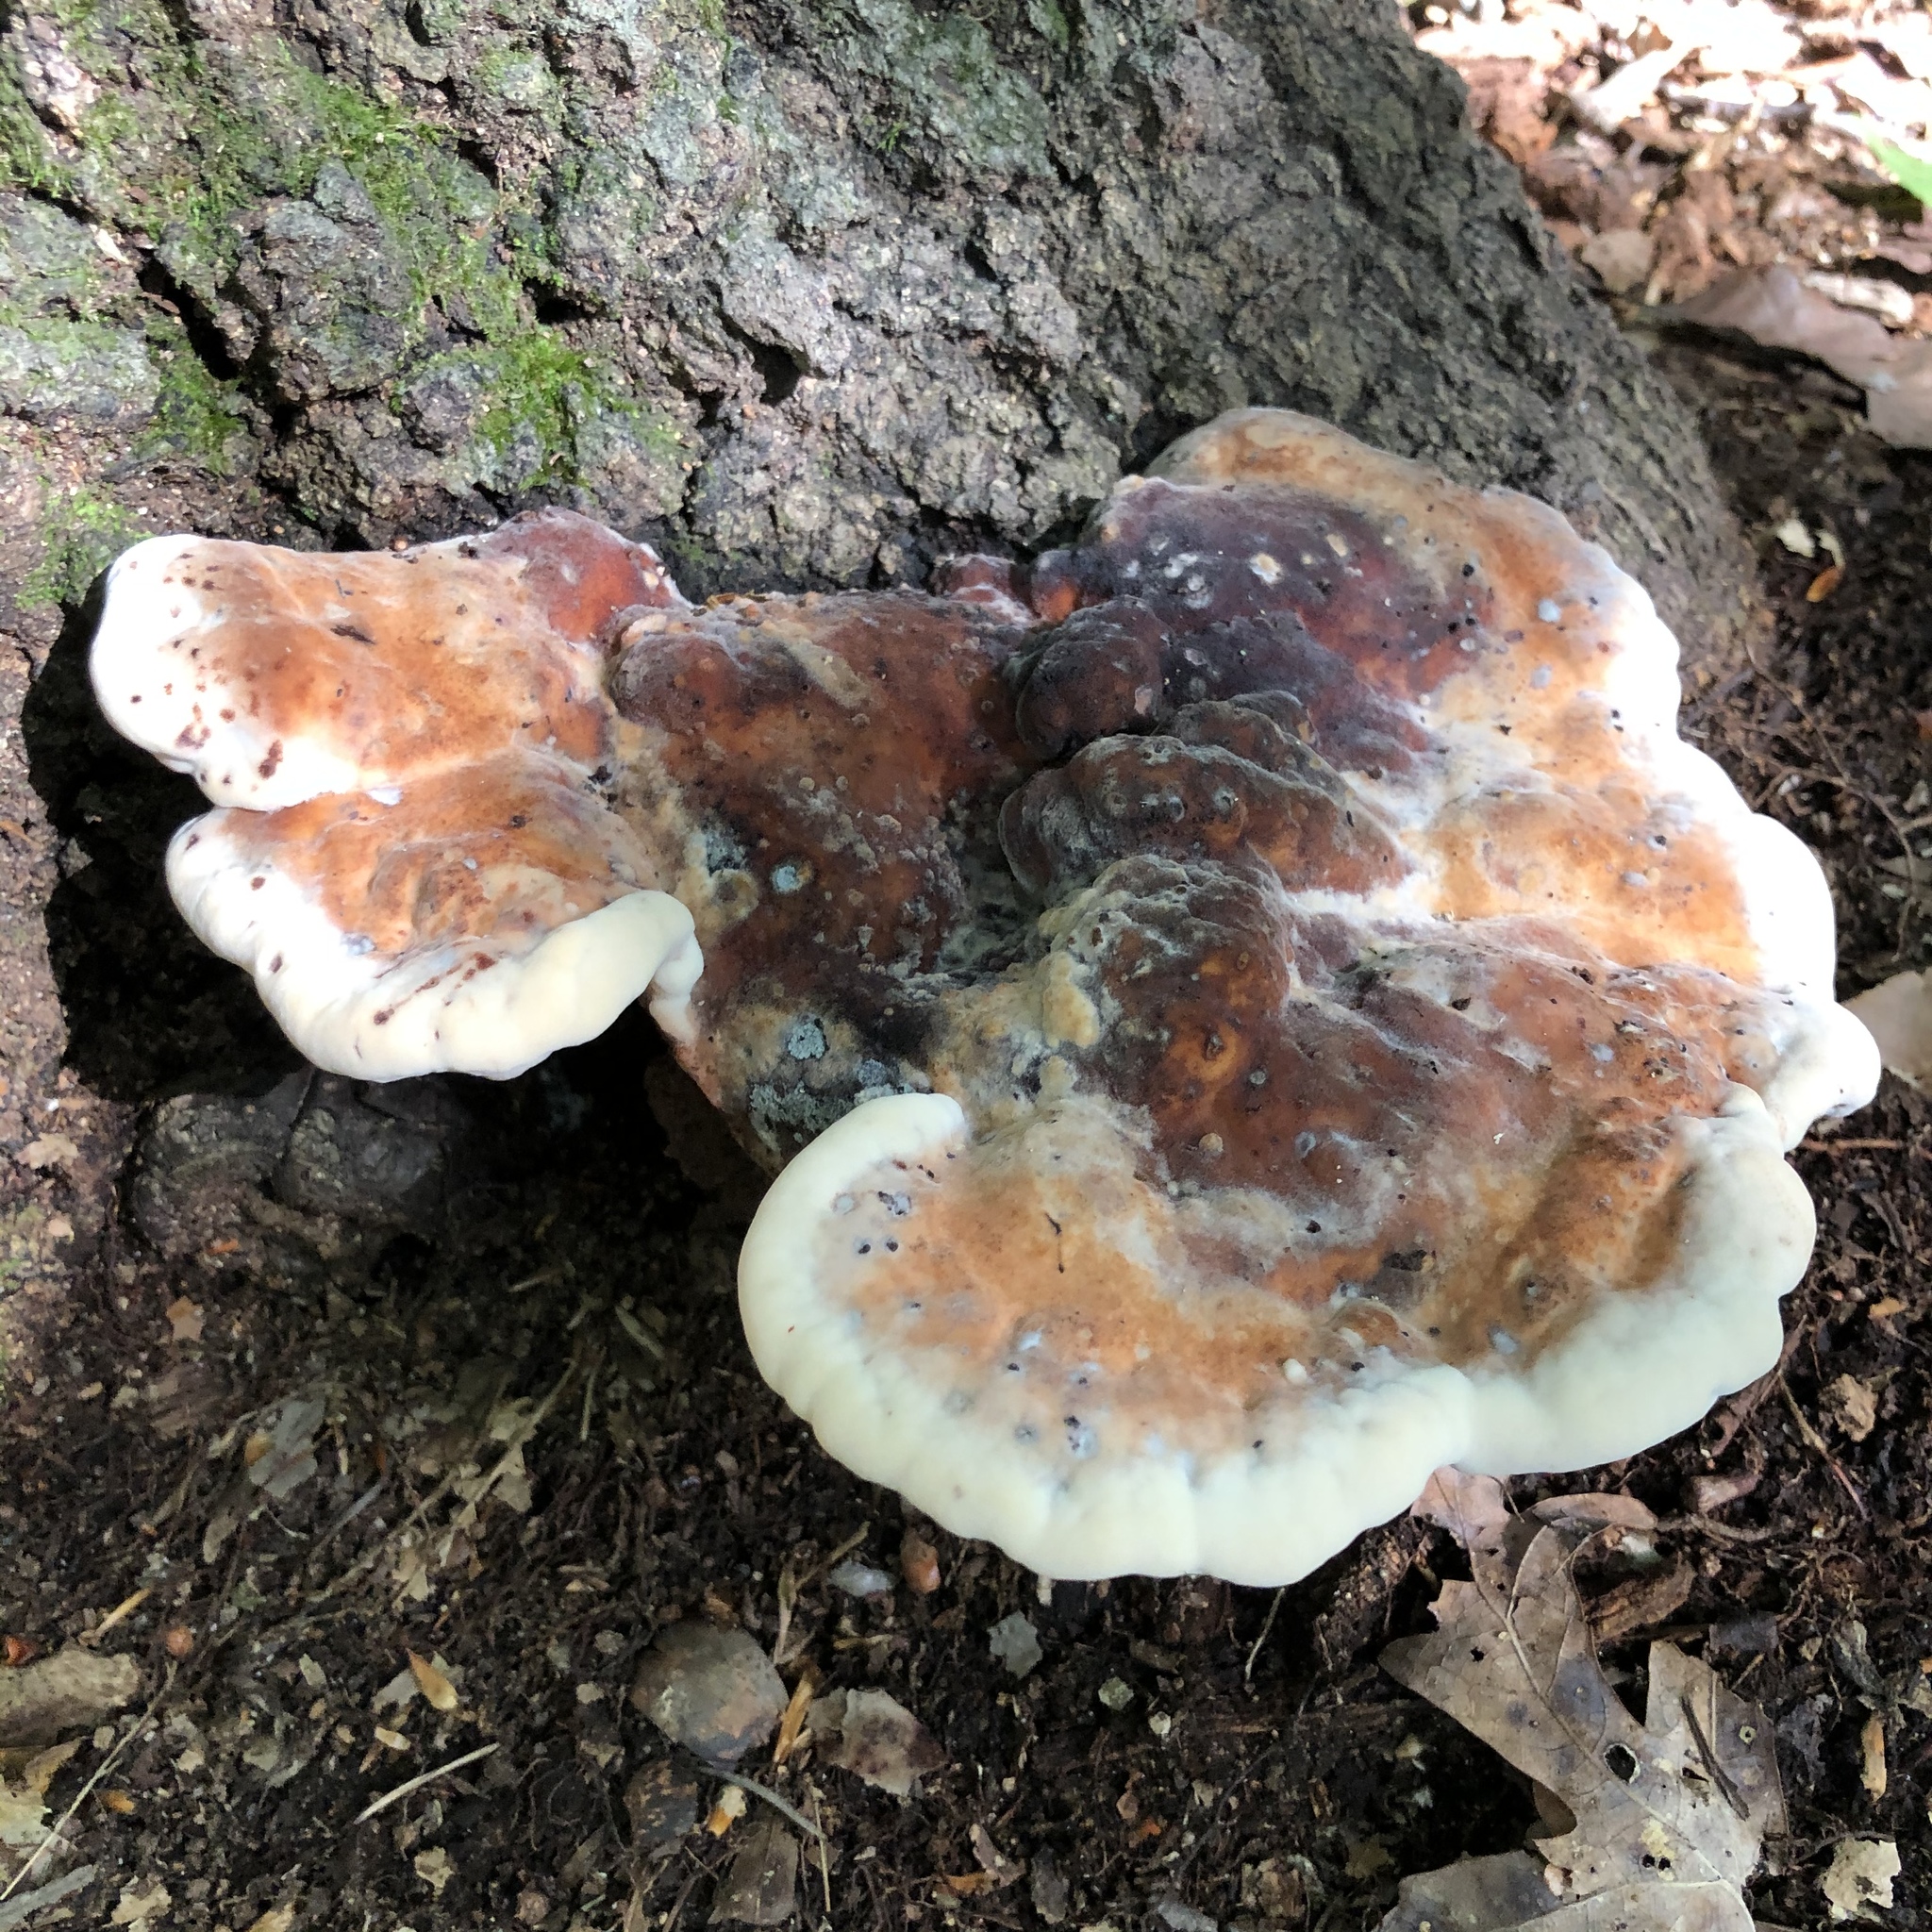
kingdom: Fungi
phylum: Basidiomycota
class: Agaricomycetes
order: Polyporales
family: Laetiporaceae
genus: Berkcurtia
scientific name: Berkcurtia persicina
